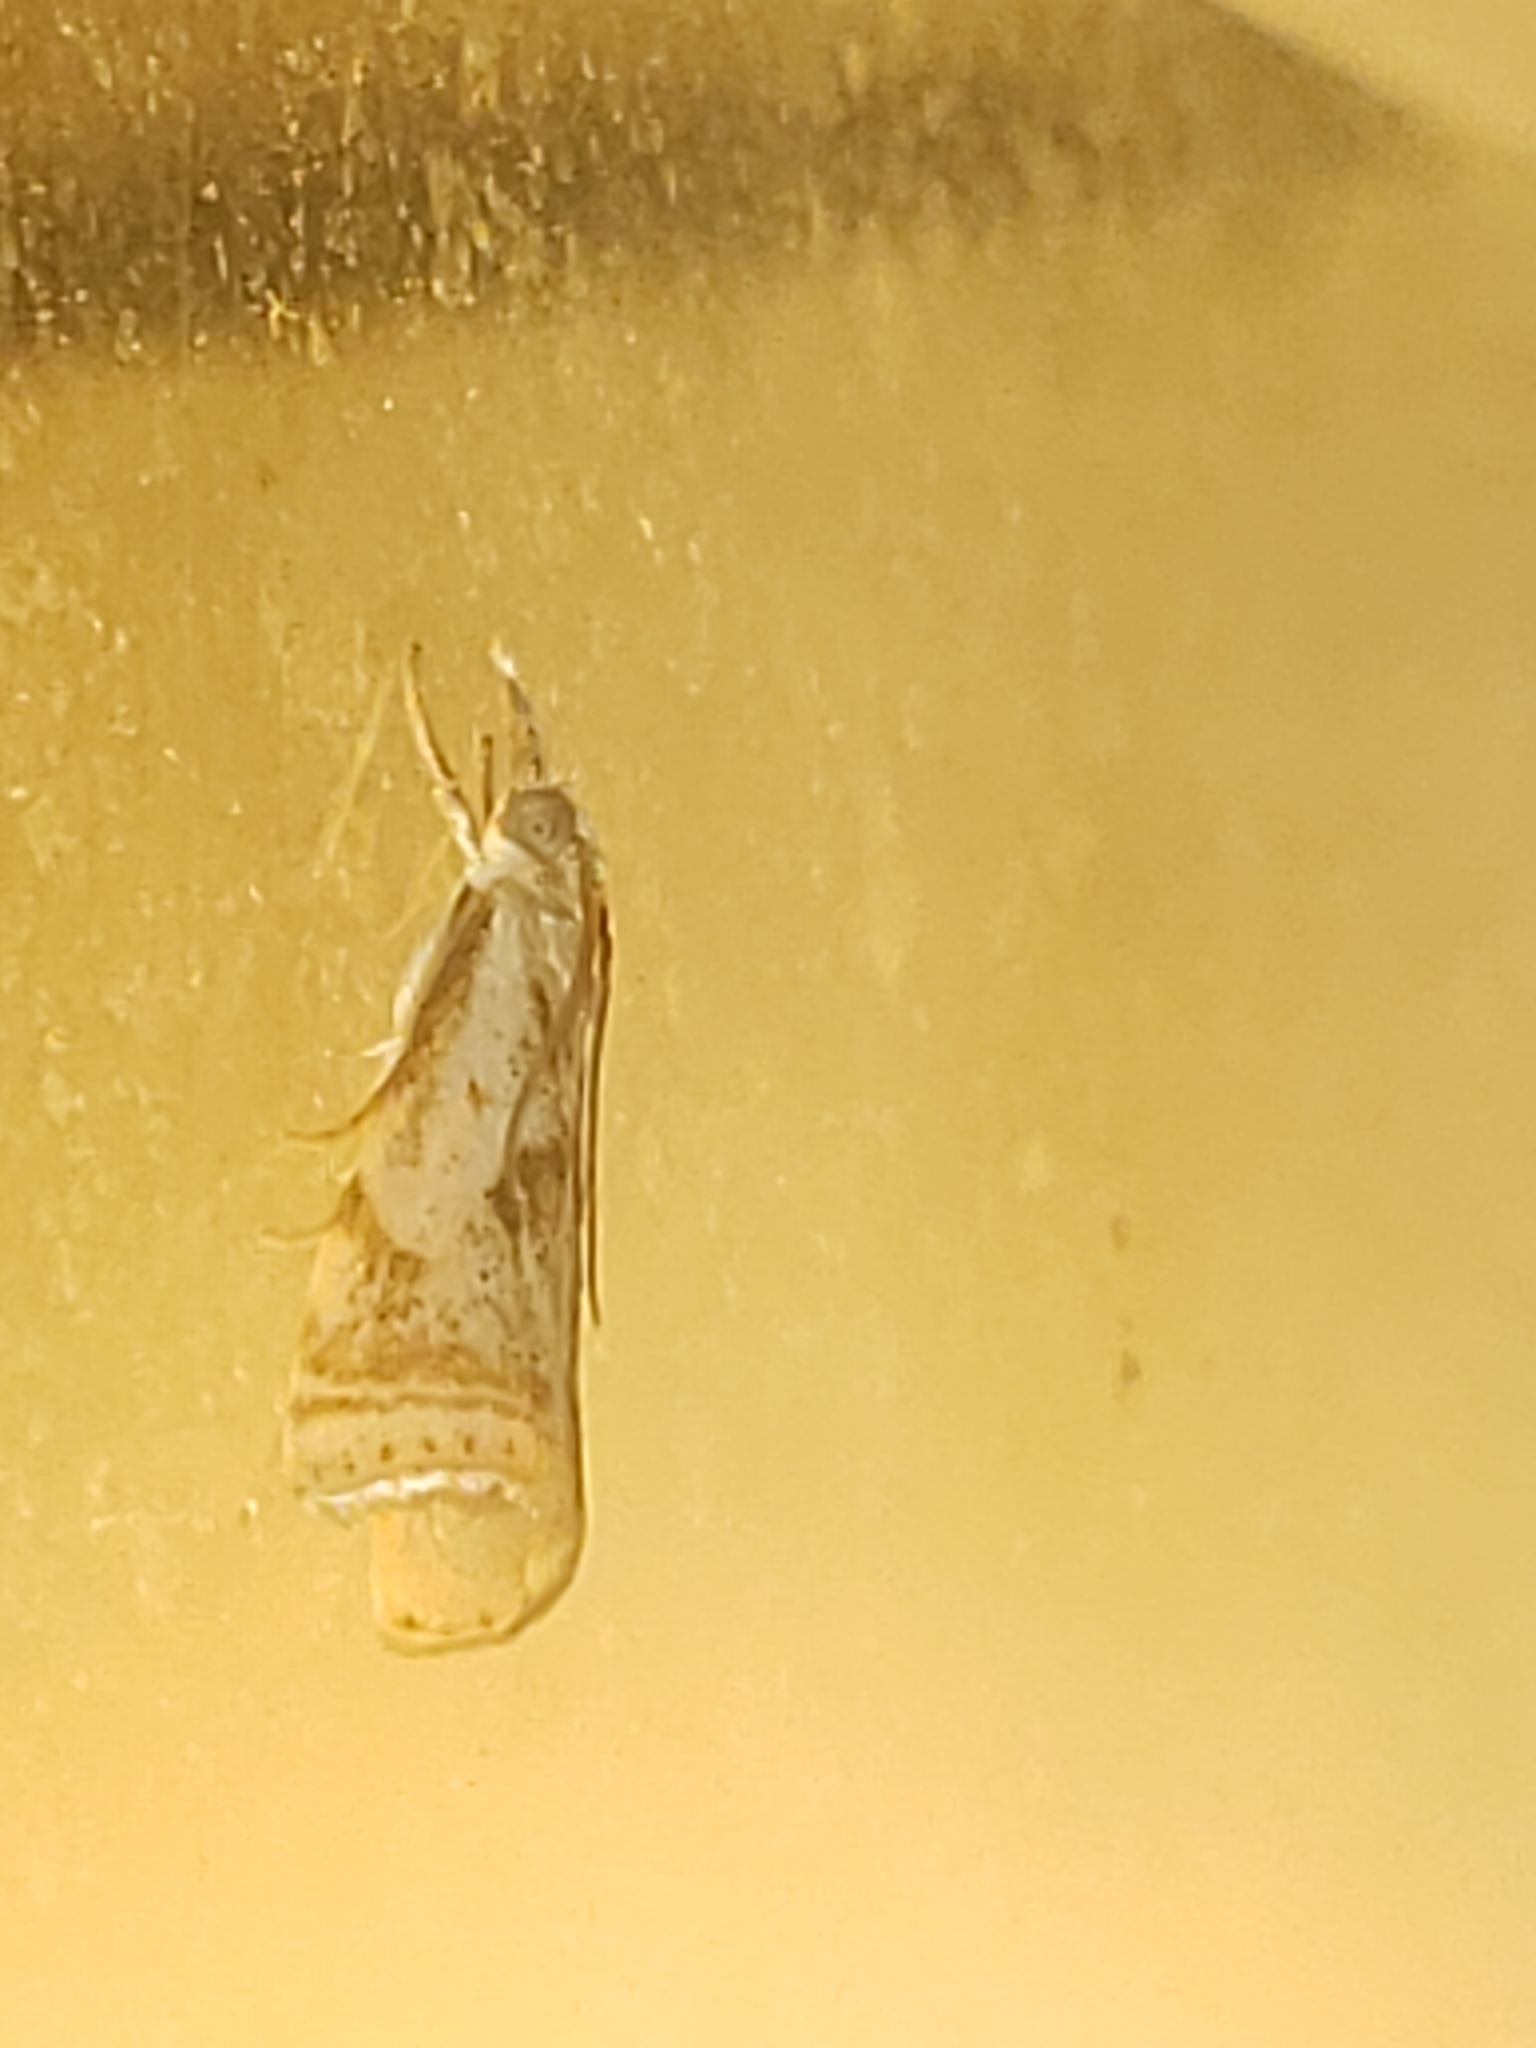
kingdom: Animalia
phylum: Arthropoda
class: Insecta
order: Lepidoptera
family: Crambidae
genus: Microcrambus
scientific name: Microcrambus elegans
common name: Elegant grass-veneer
